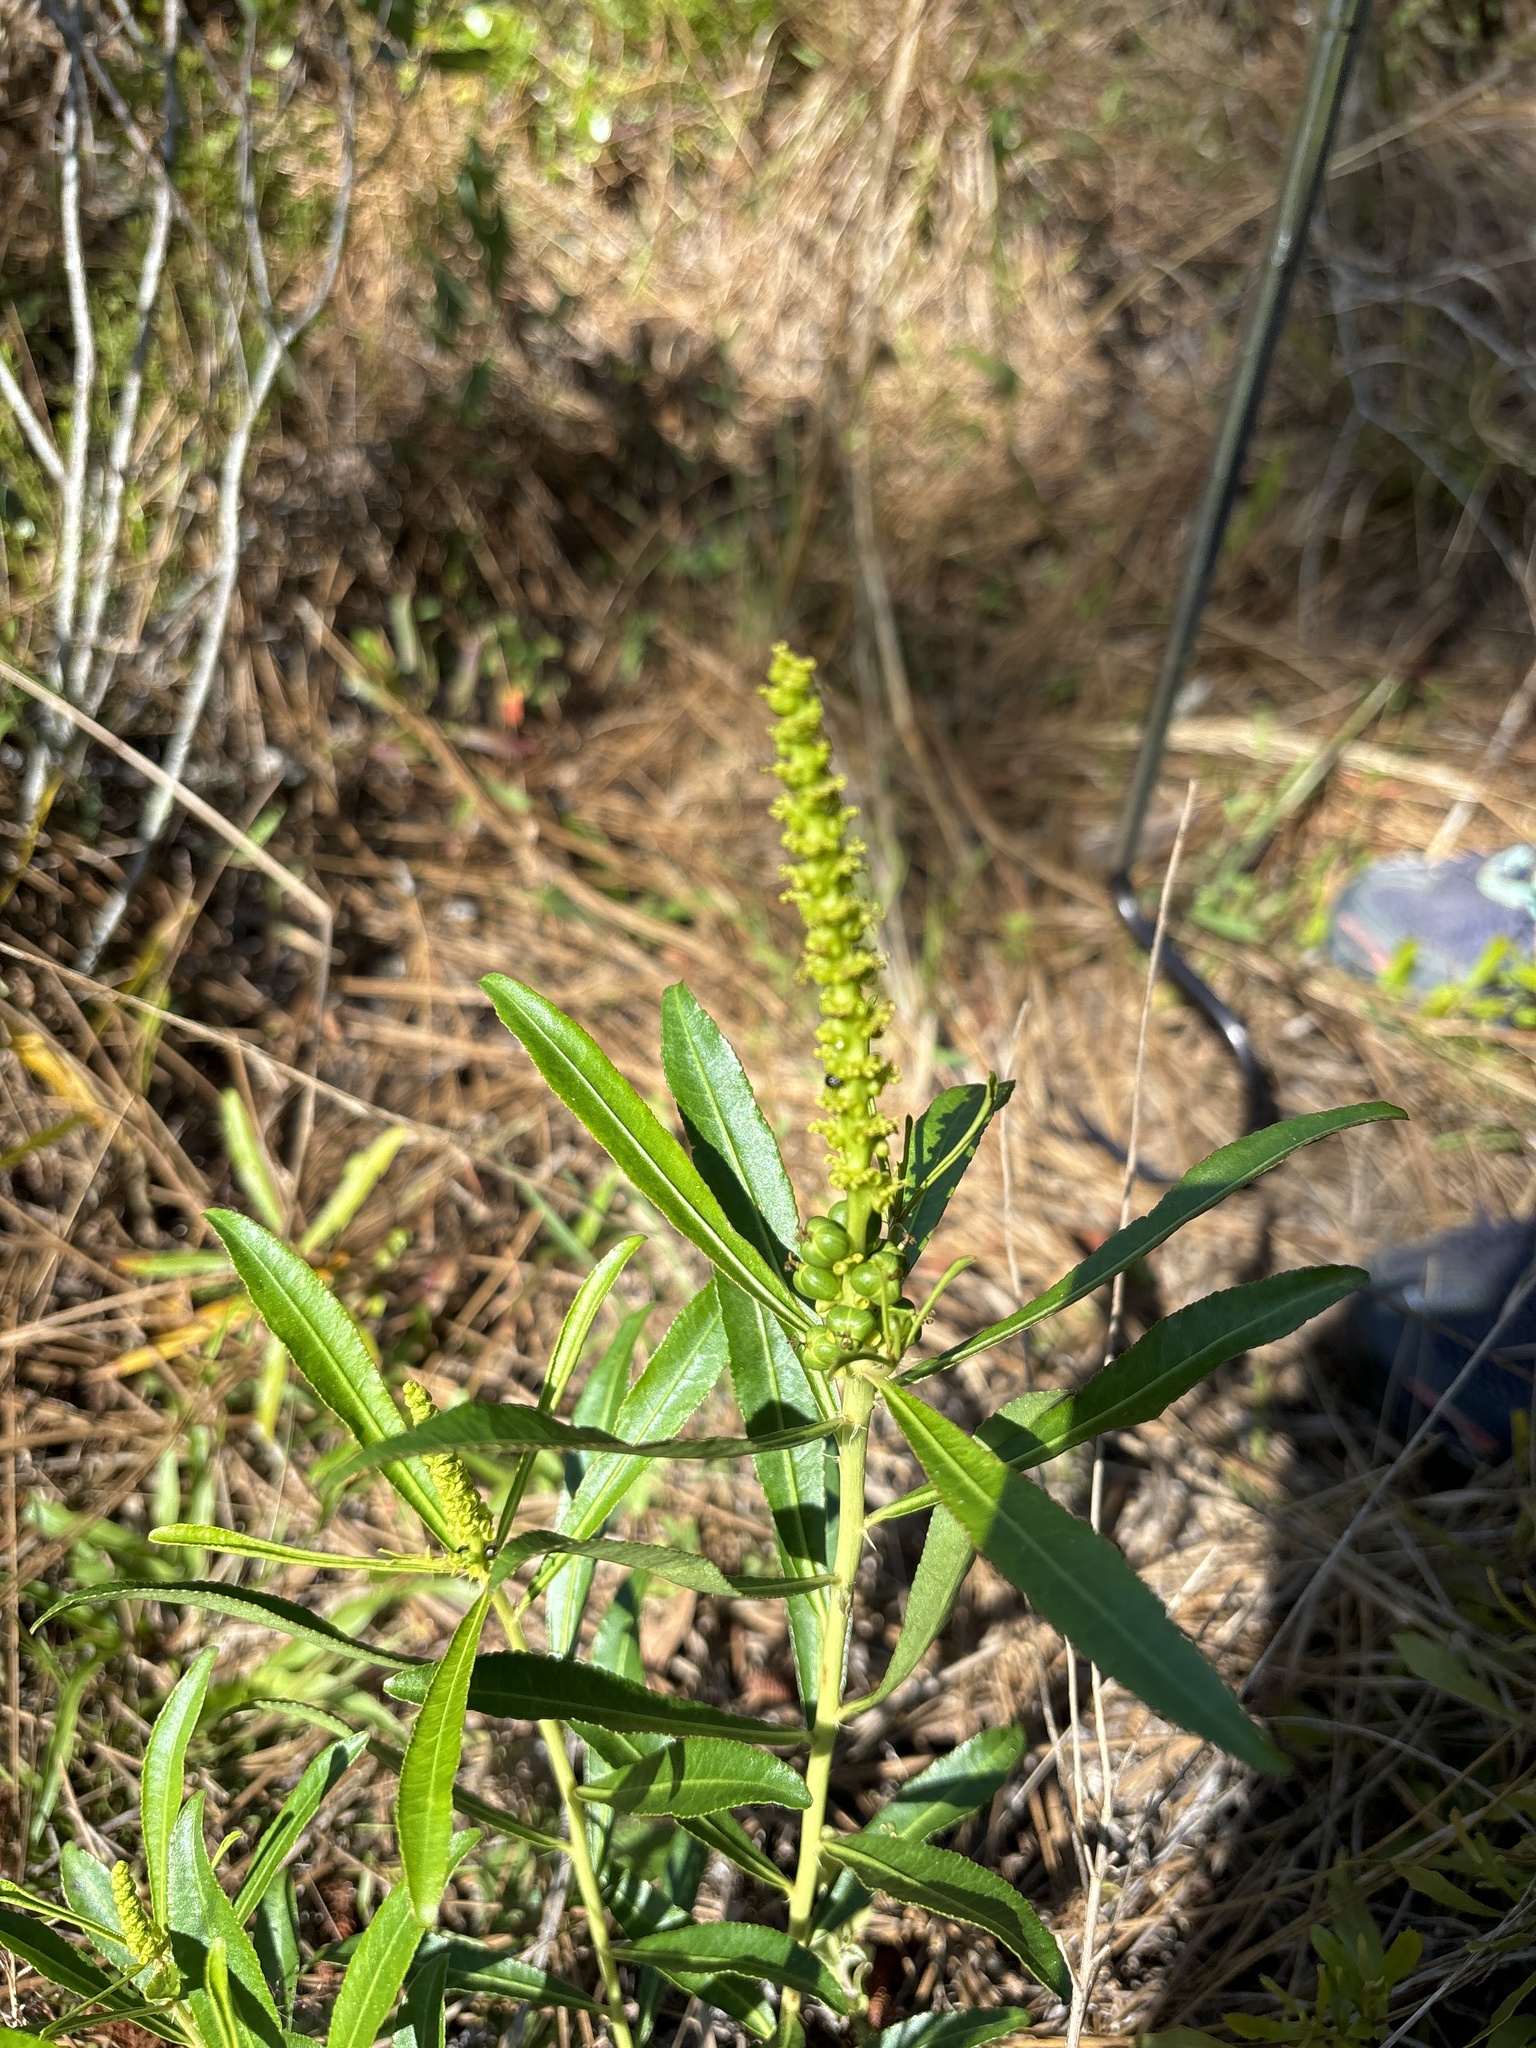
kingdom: Plantae
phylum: Tracheophyta
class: Magnoliopsida
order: Malpighiales
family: Euphorbiaceae
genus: Stillingia
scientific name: Stillingia sylvatica
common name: Queen's-delight
